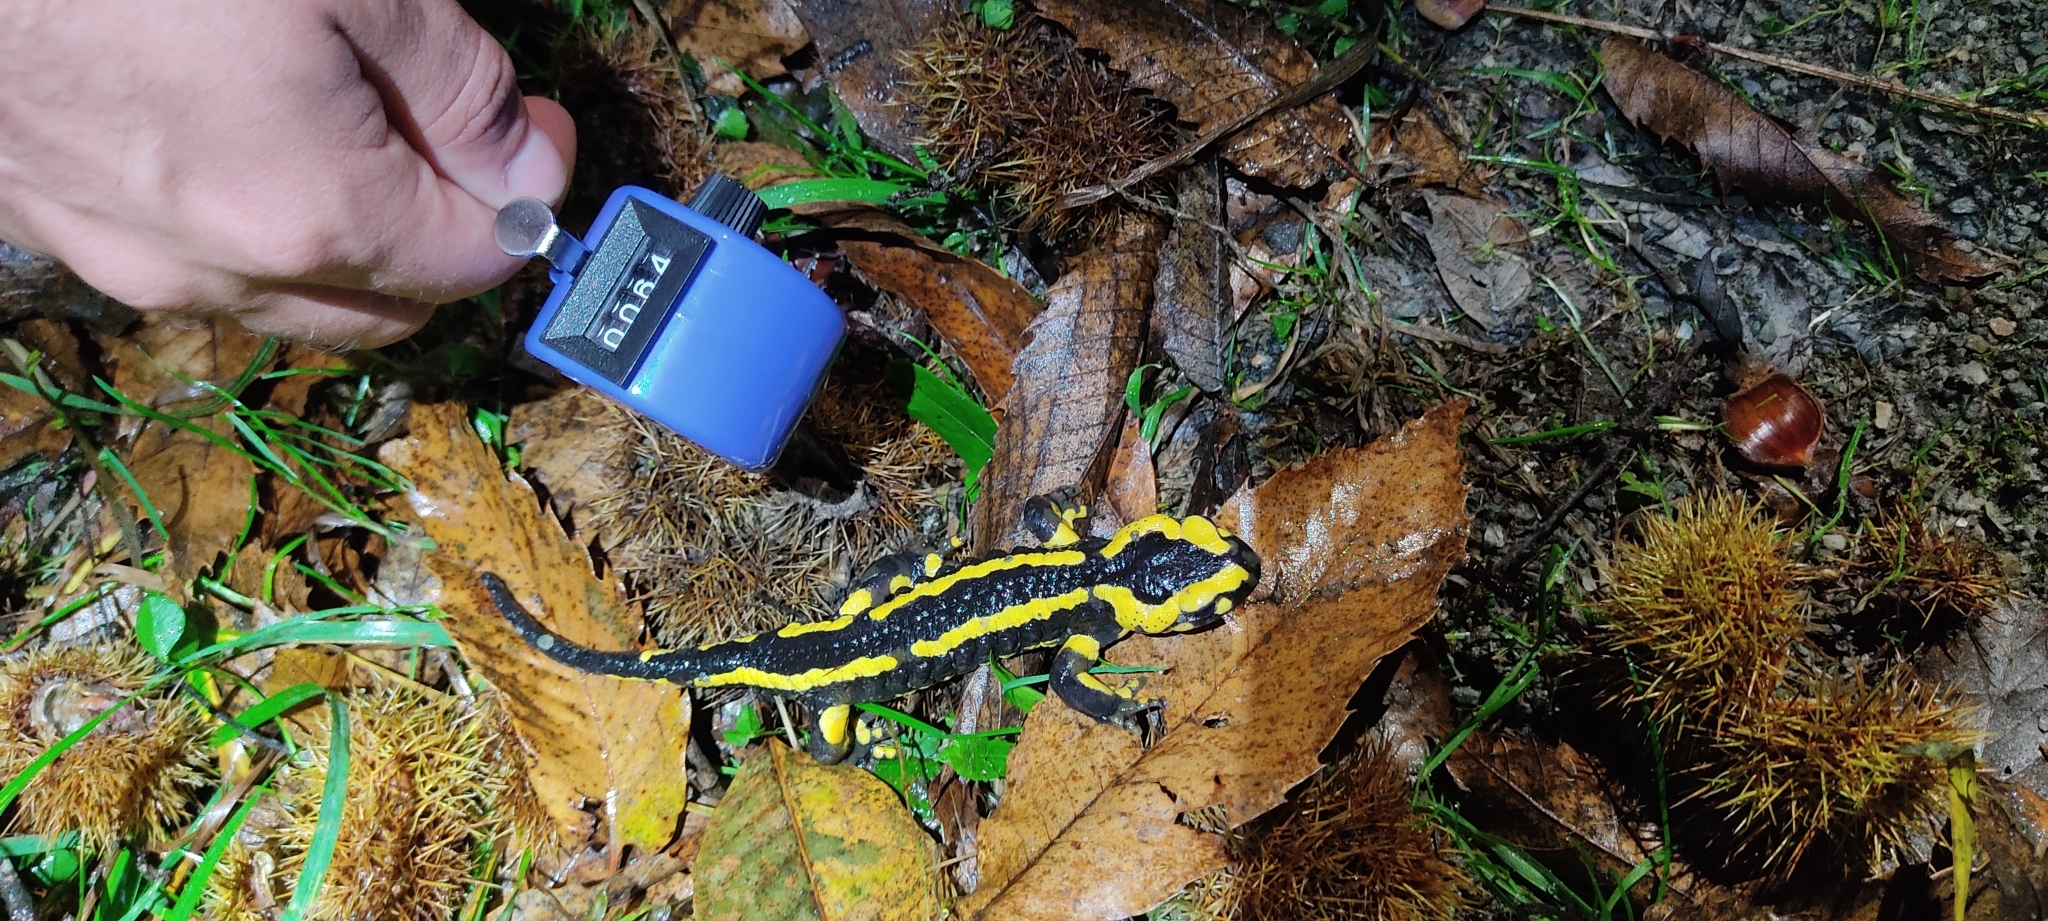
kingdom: Animalia
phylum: Chordata
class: Amphibia
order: Caudata
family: Salamandridae
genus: Salamandra
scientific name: Salamandra salamandra
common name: Fire salamander
